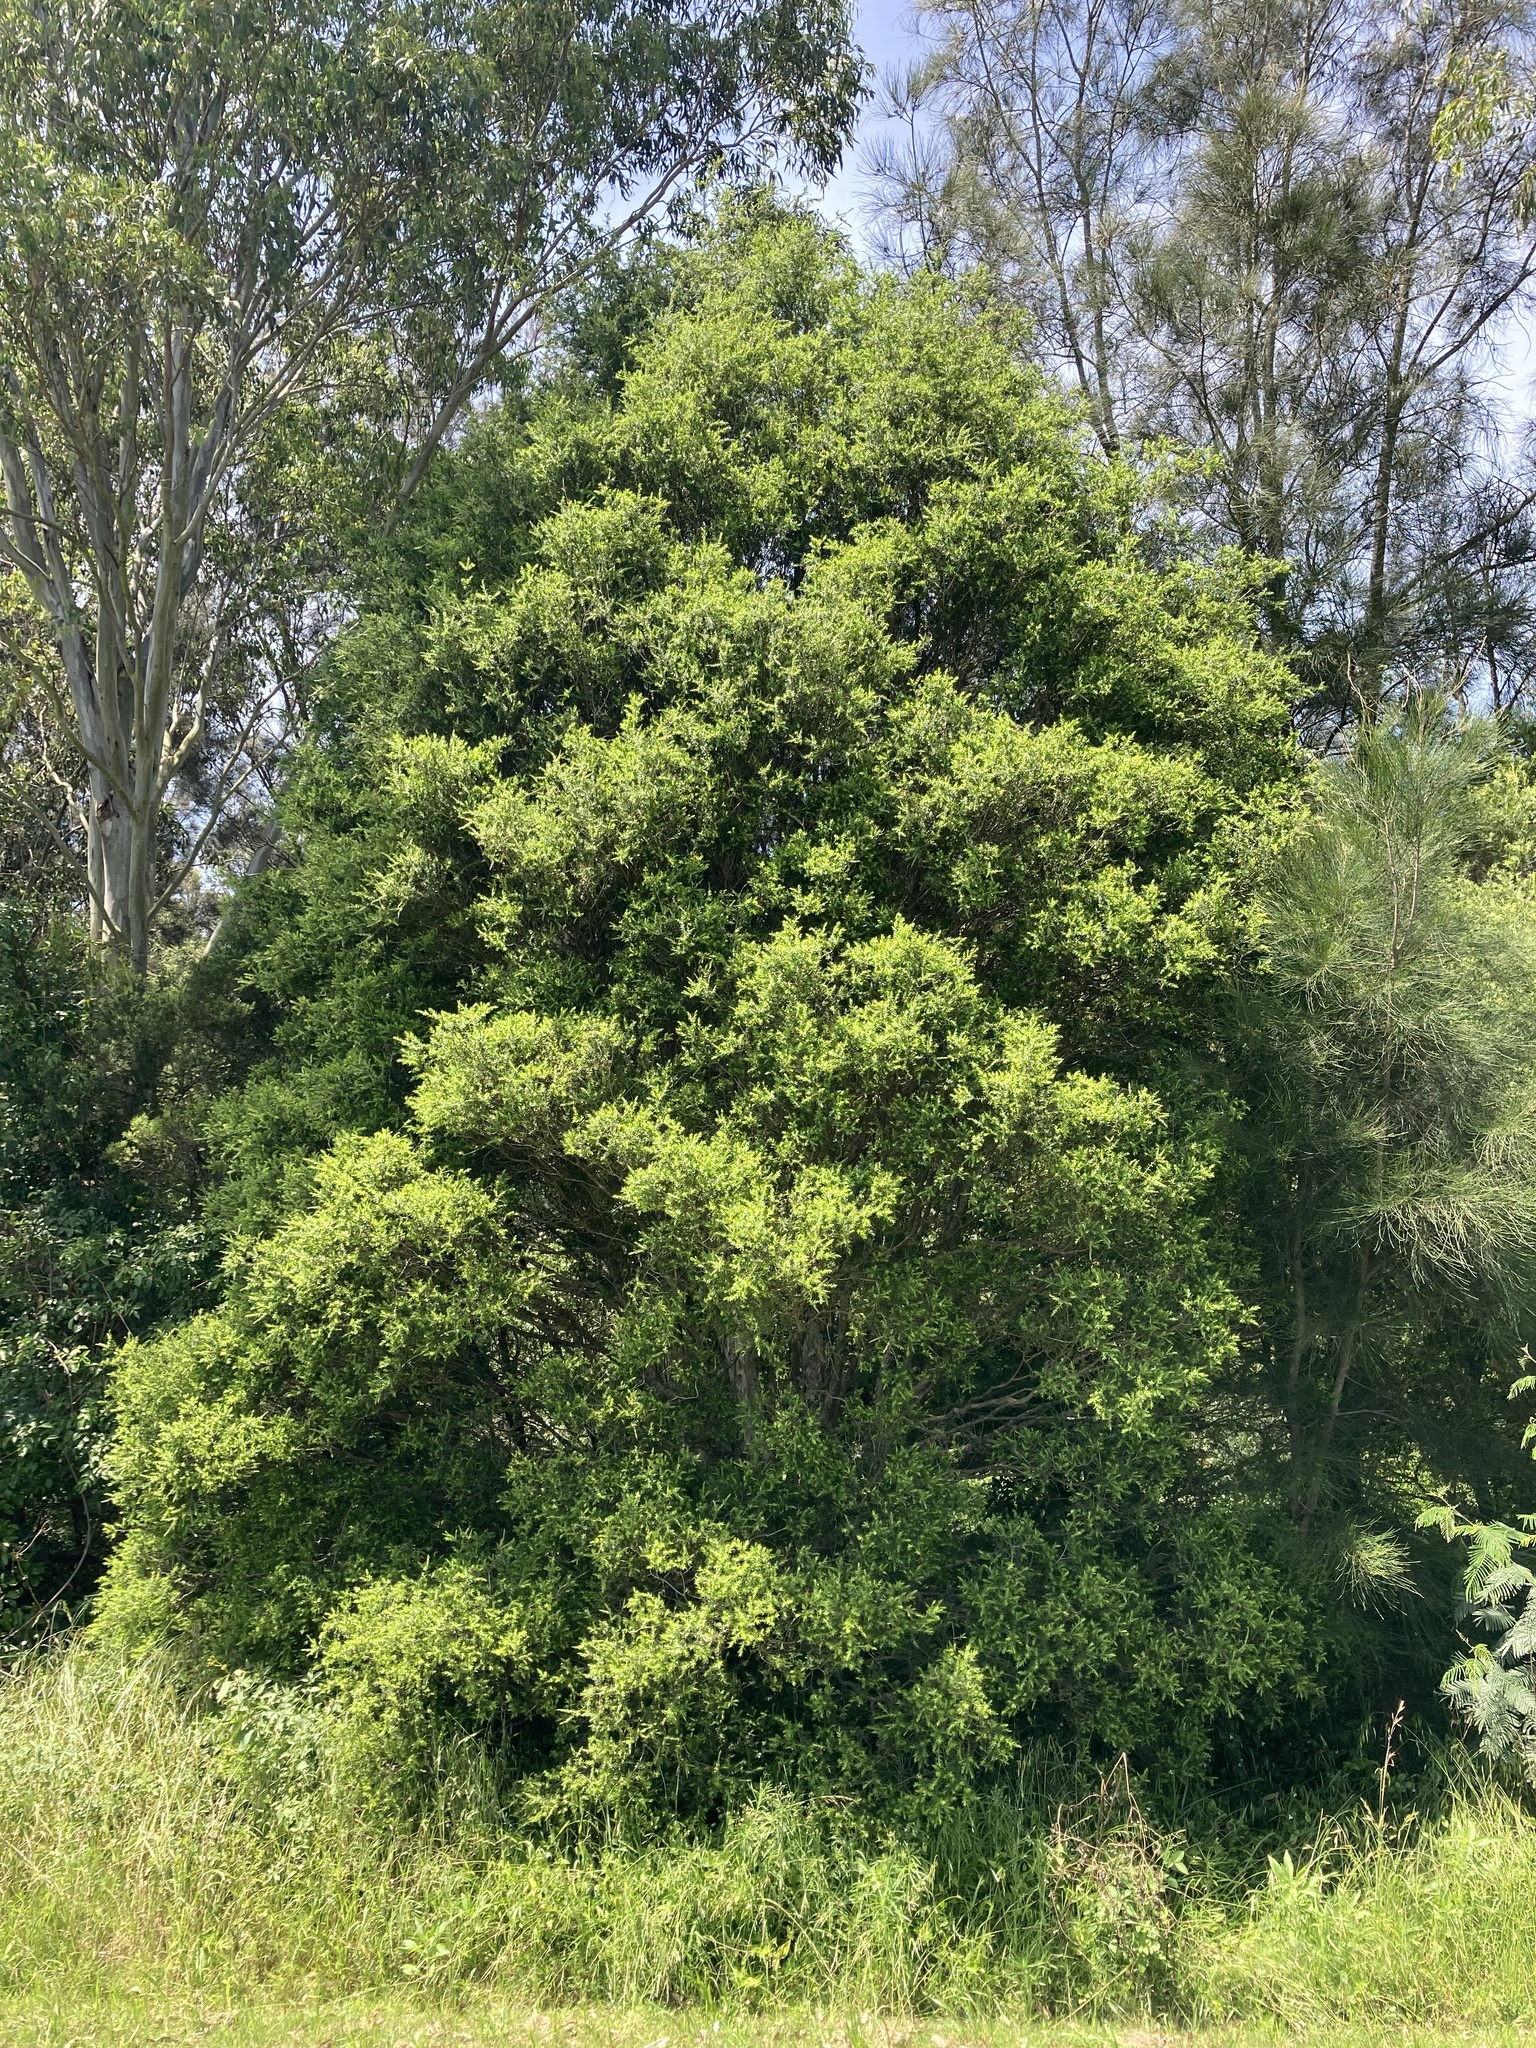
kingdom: Plantae
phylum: Tracheophyta
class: Magnoliopsida
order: Myrtales
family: Myrtaceae
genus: Melaleuca
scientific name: Melaleuca styphelioides
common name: Prickly paperbark
